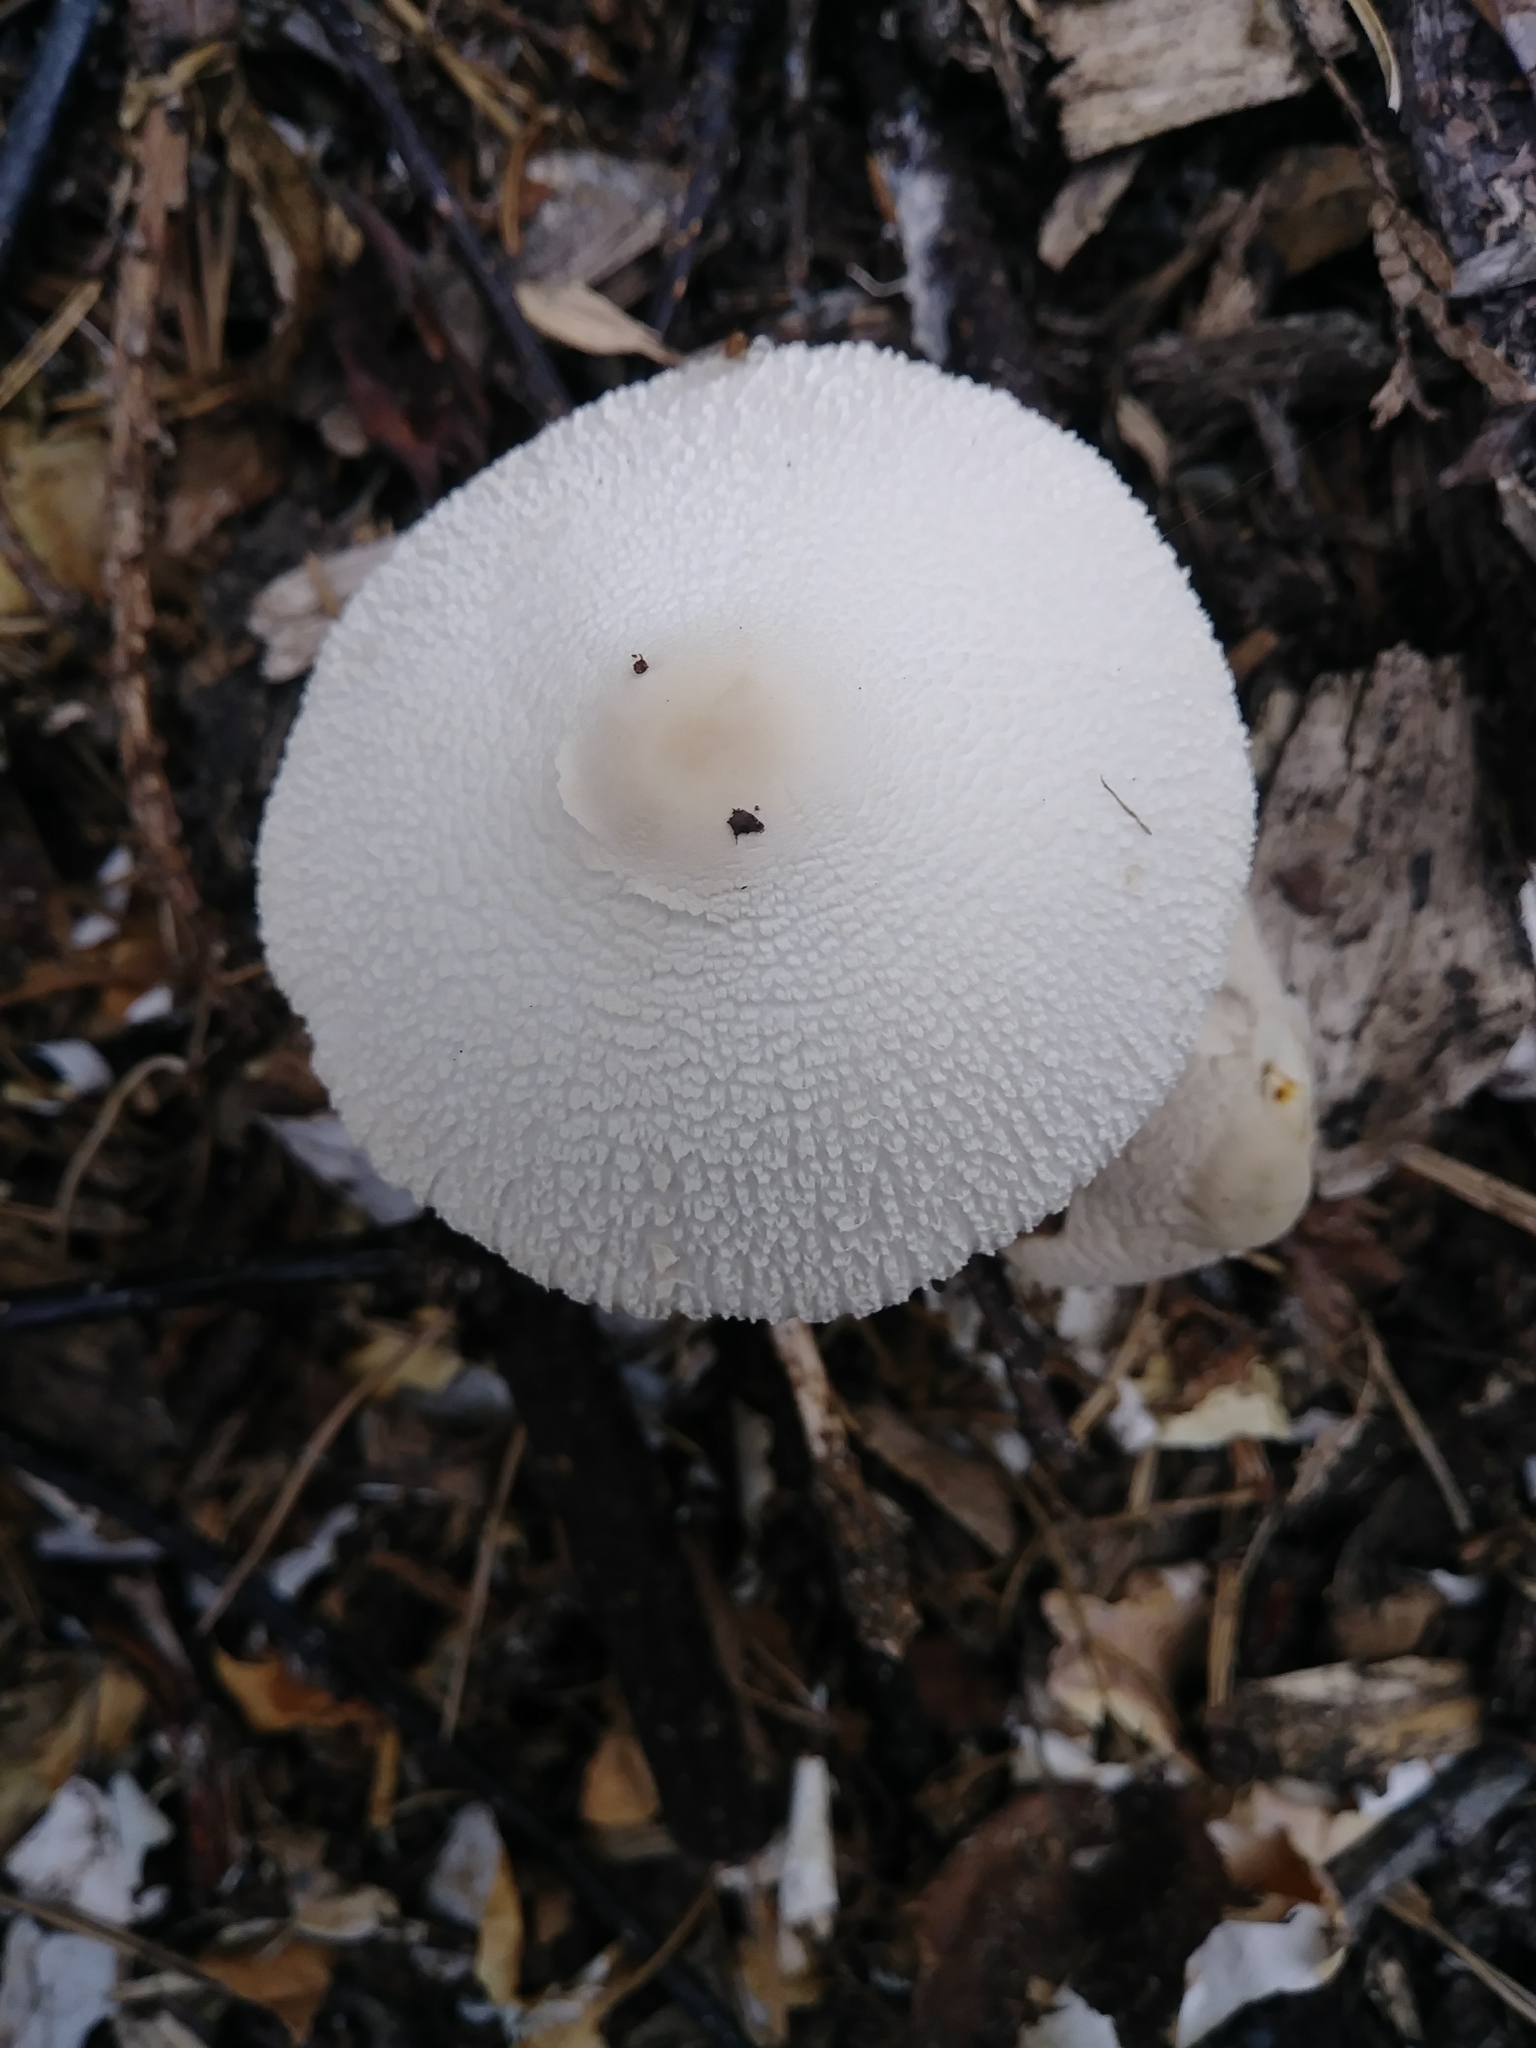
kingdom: Fungi
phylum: Basidiomycota
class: Agaricomycetes
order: Agaricales
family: Agaricaceae
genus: Leucocoprinus
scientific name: Leucocoprinus cepistipes
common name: Onion-stalk parasol
